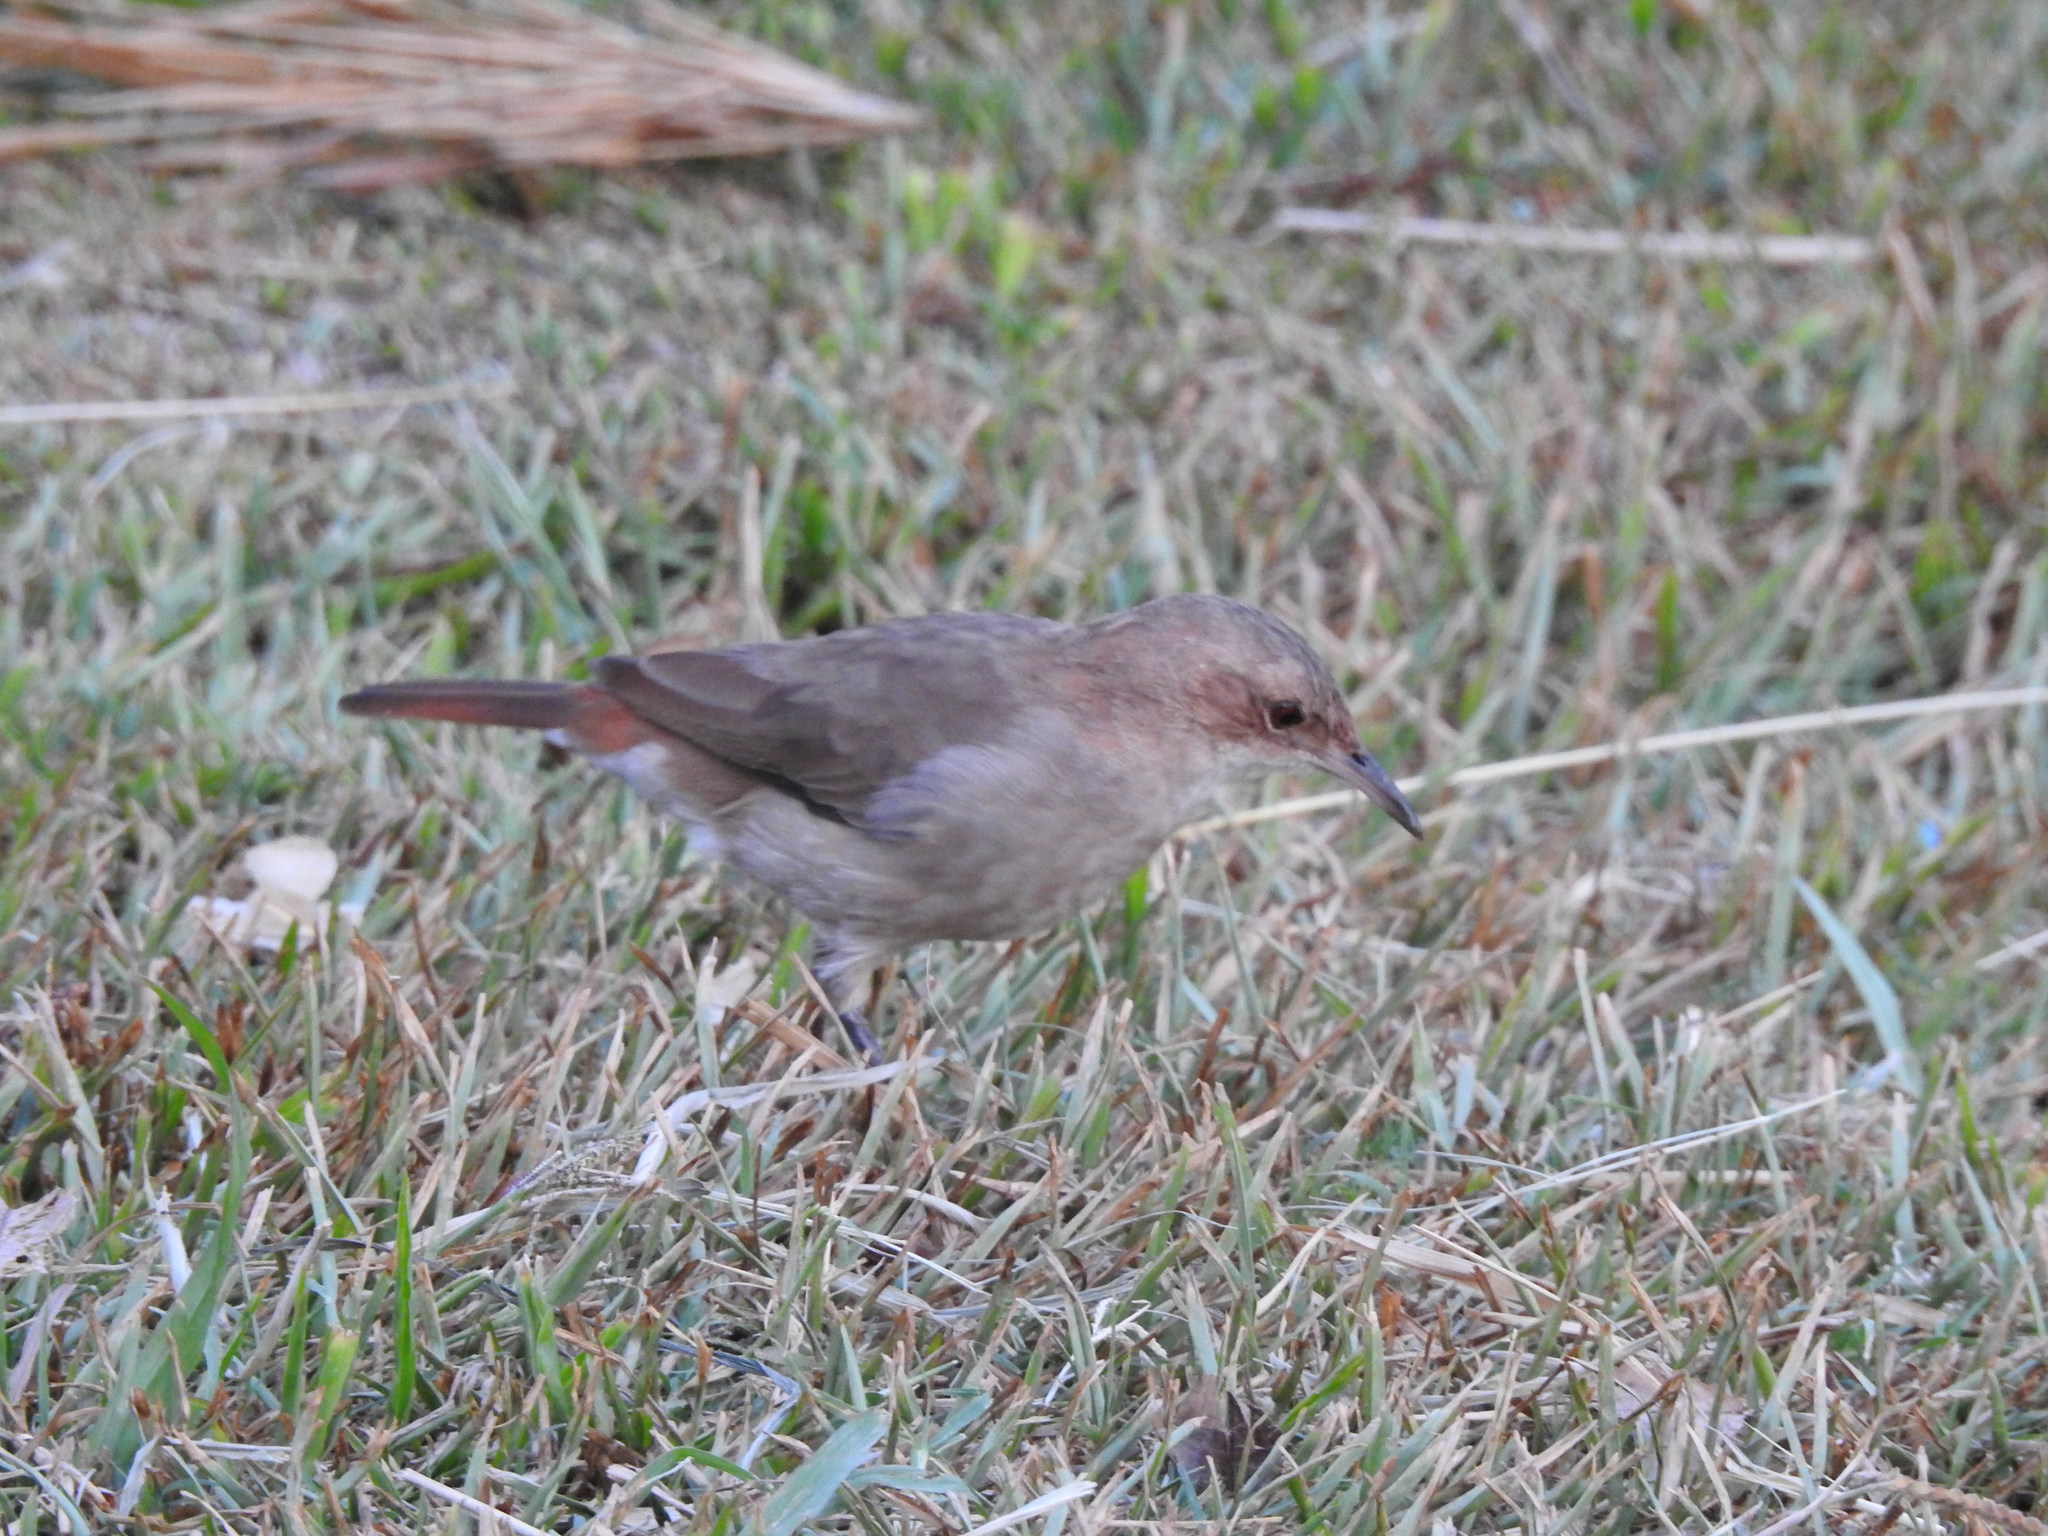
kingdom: Animalia
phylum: Chordata
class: Aves
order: Passeriformes
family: Furnariidae
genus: Furnarius
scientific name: Furnarius rufus
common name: Rufous hornero
